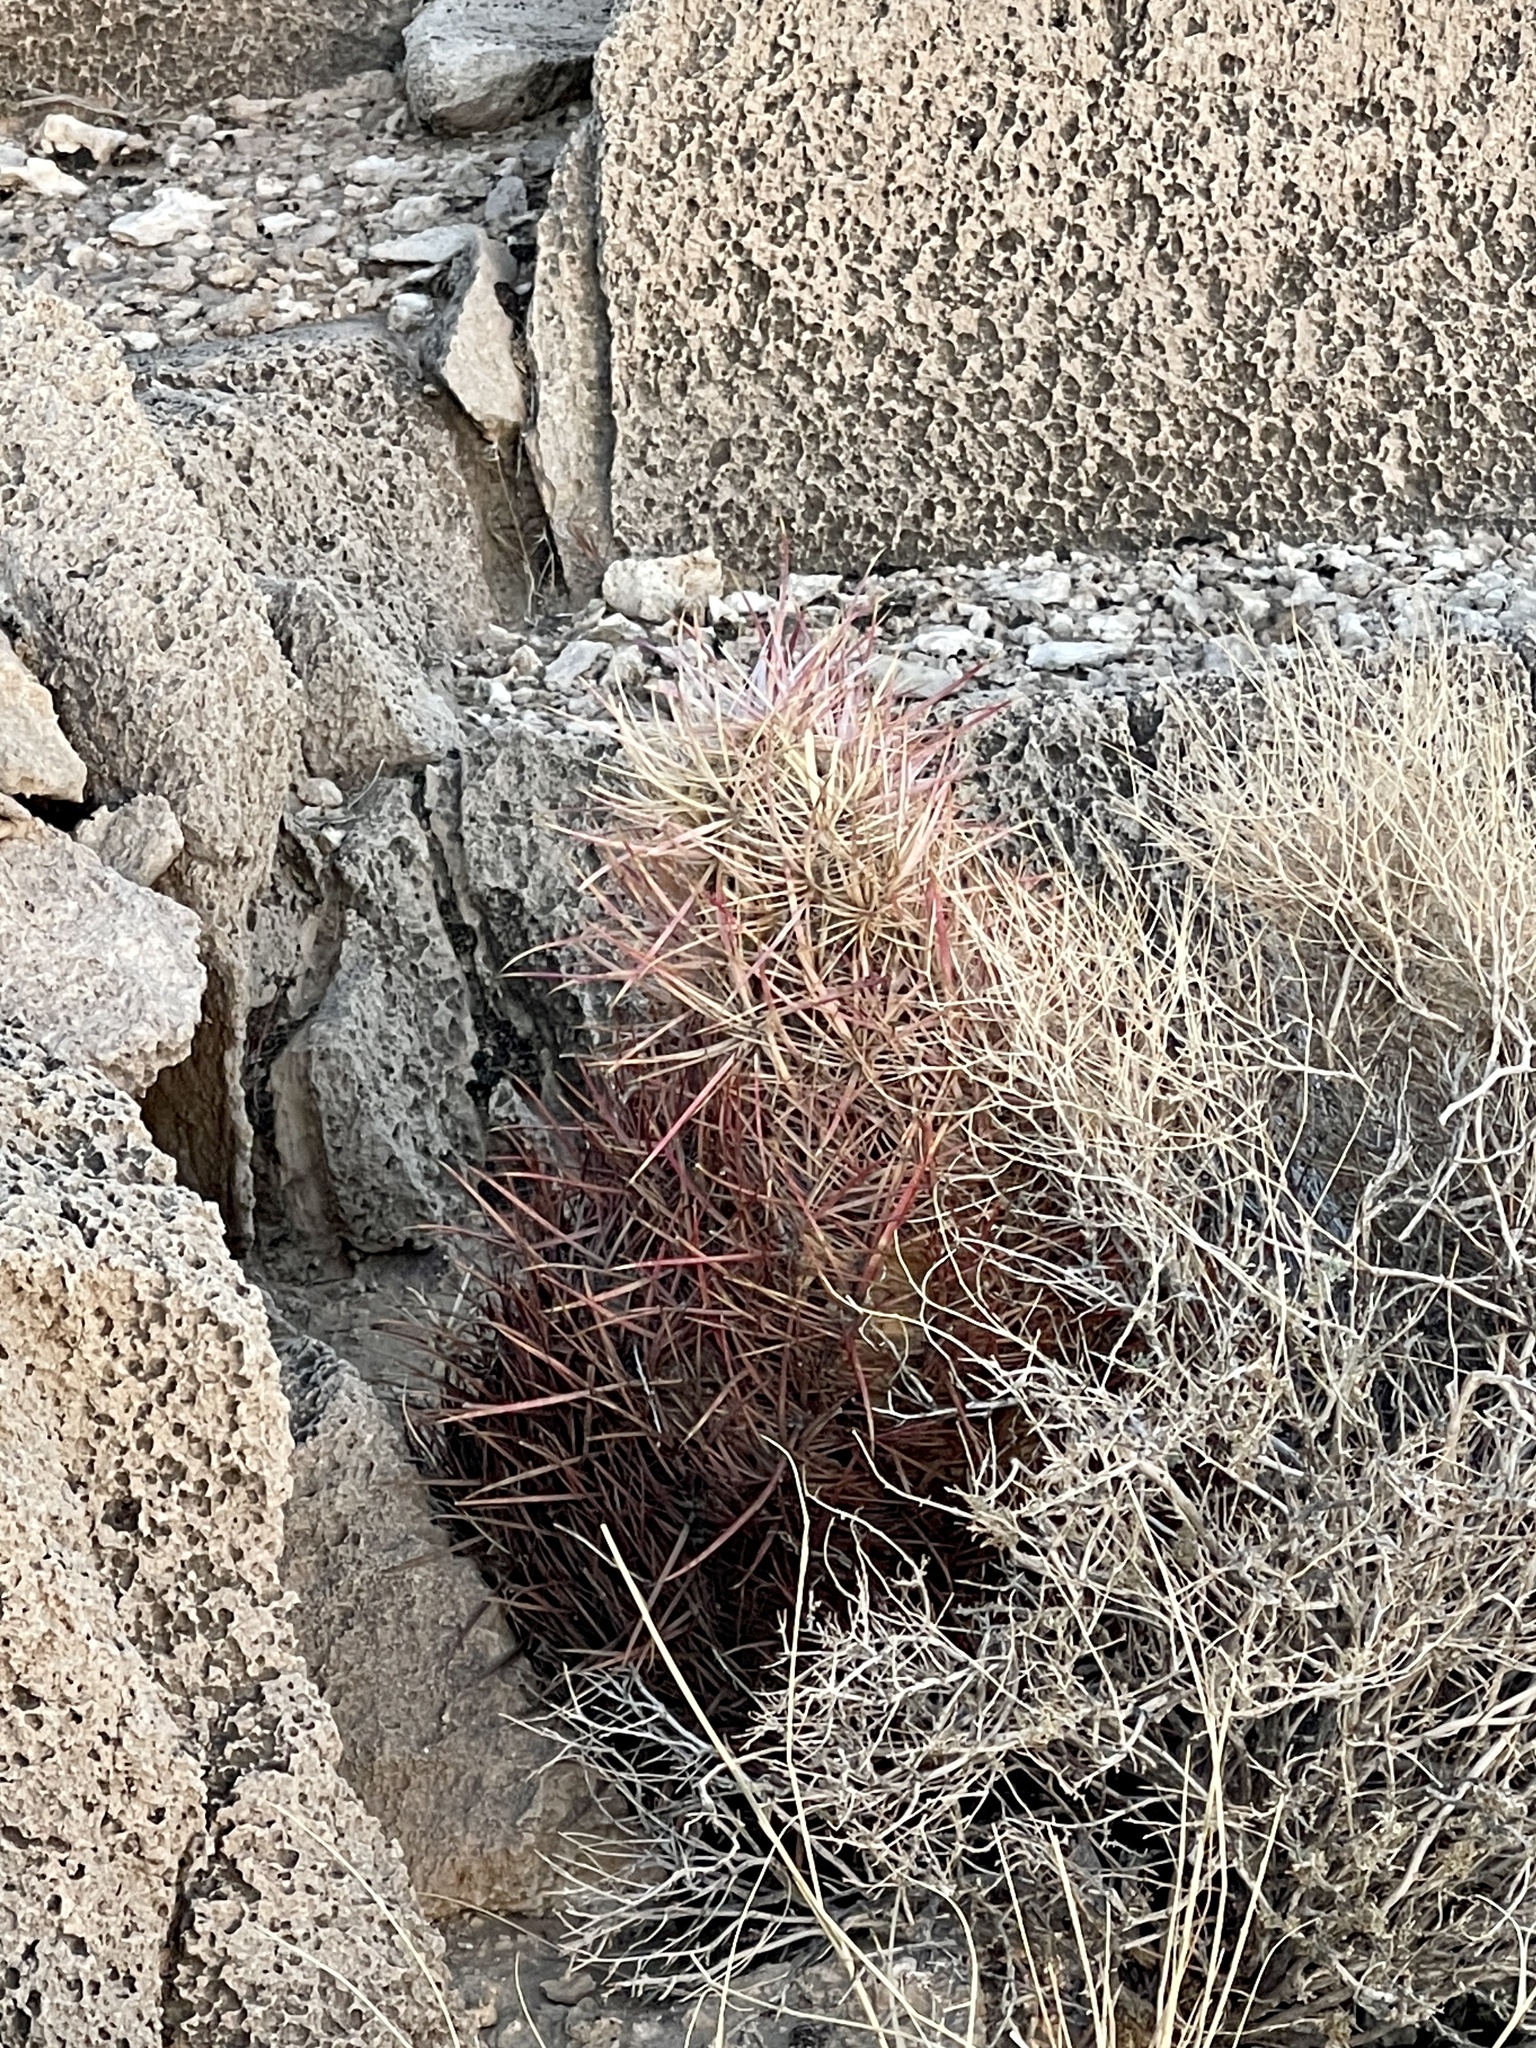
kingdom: Plantae
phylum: Tracheophyta
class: Magnoliopsida
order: Caryophyllales
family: Cactaceae
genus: Ferocactus
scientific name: Ferocactus cylindraceus
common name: California barrel cactus
